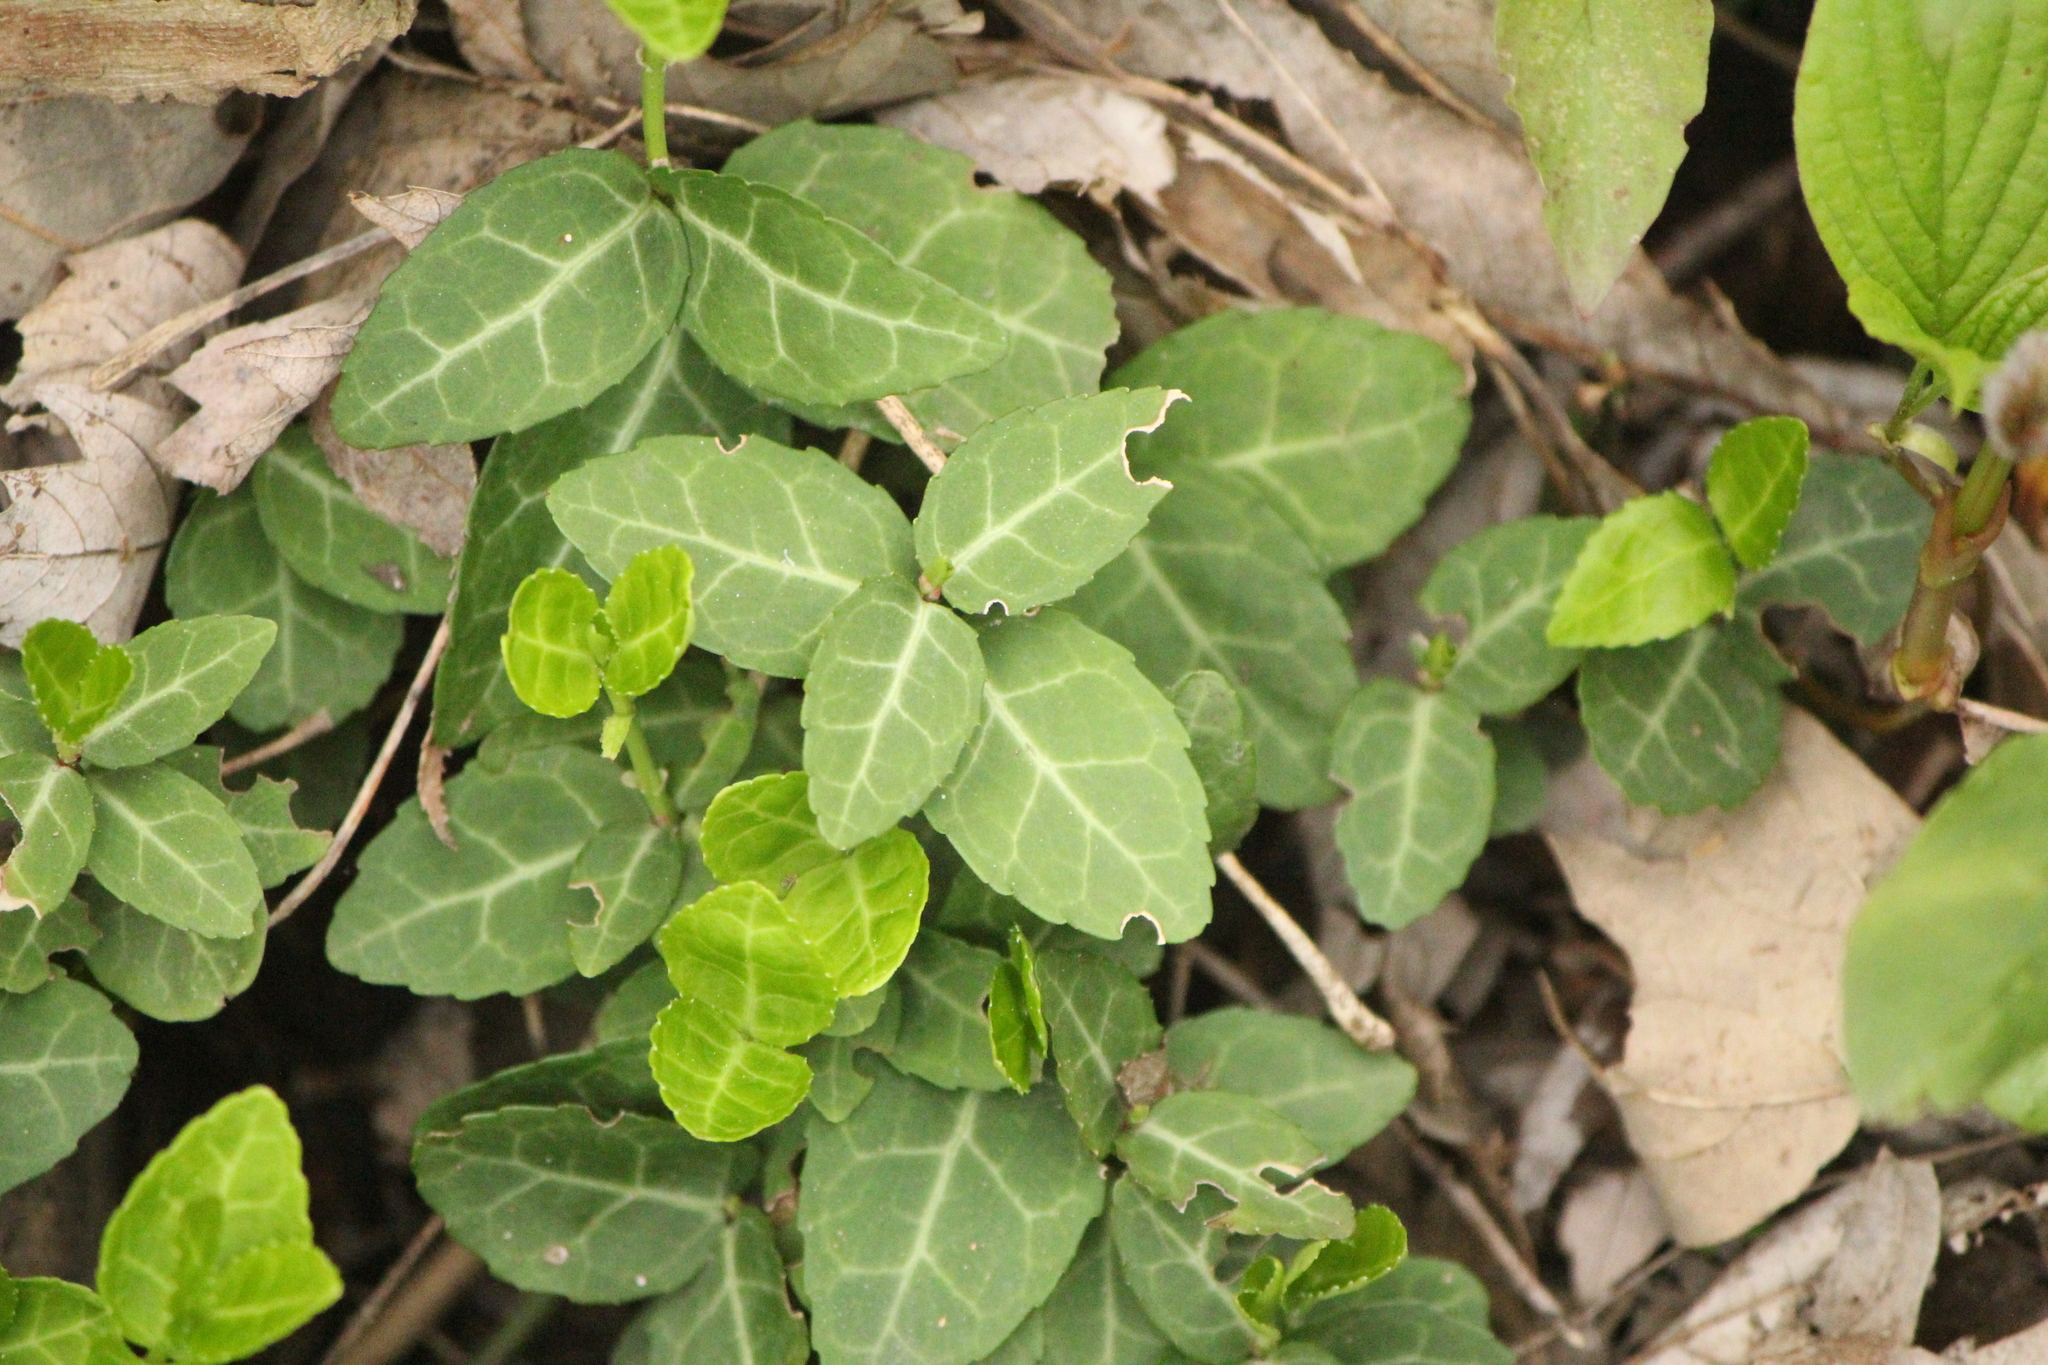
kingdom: Plantae
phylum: Tracheophyta
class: Magnoliopsida
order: Celastrales
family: Celastraceae
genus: Euonymus
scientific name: Euonymus fortunei
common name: Climbing euonymus
